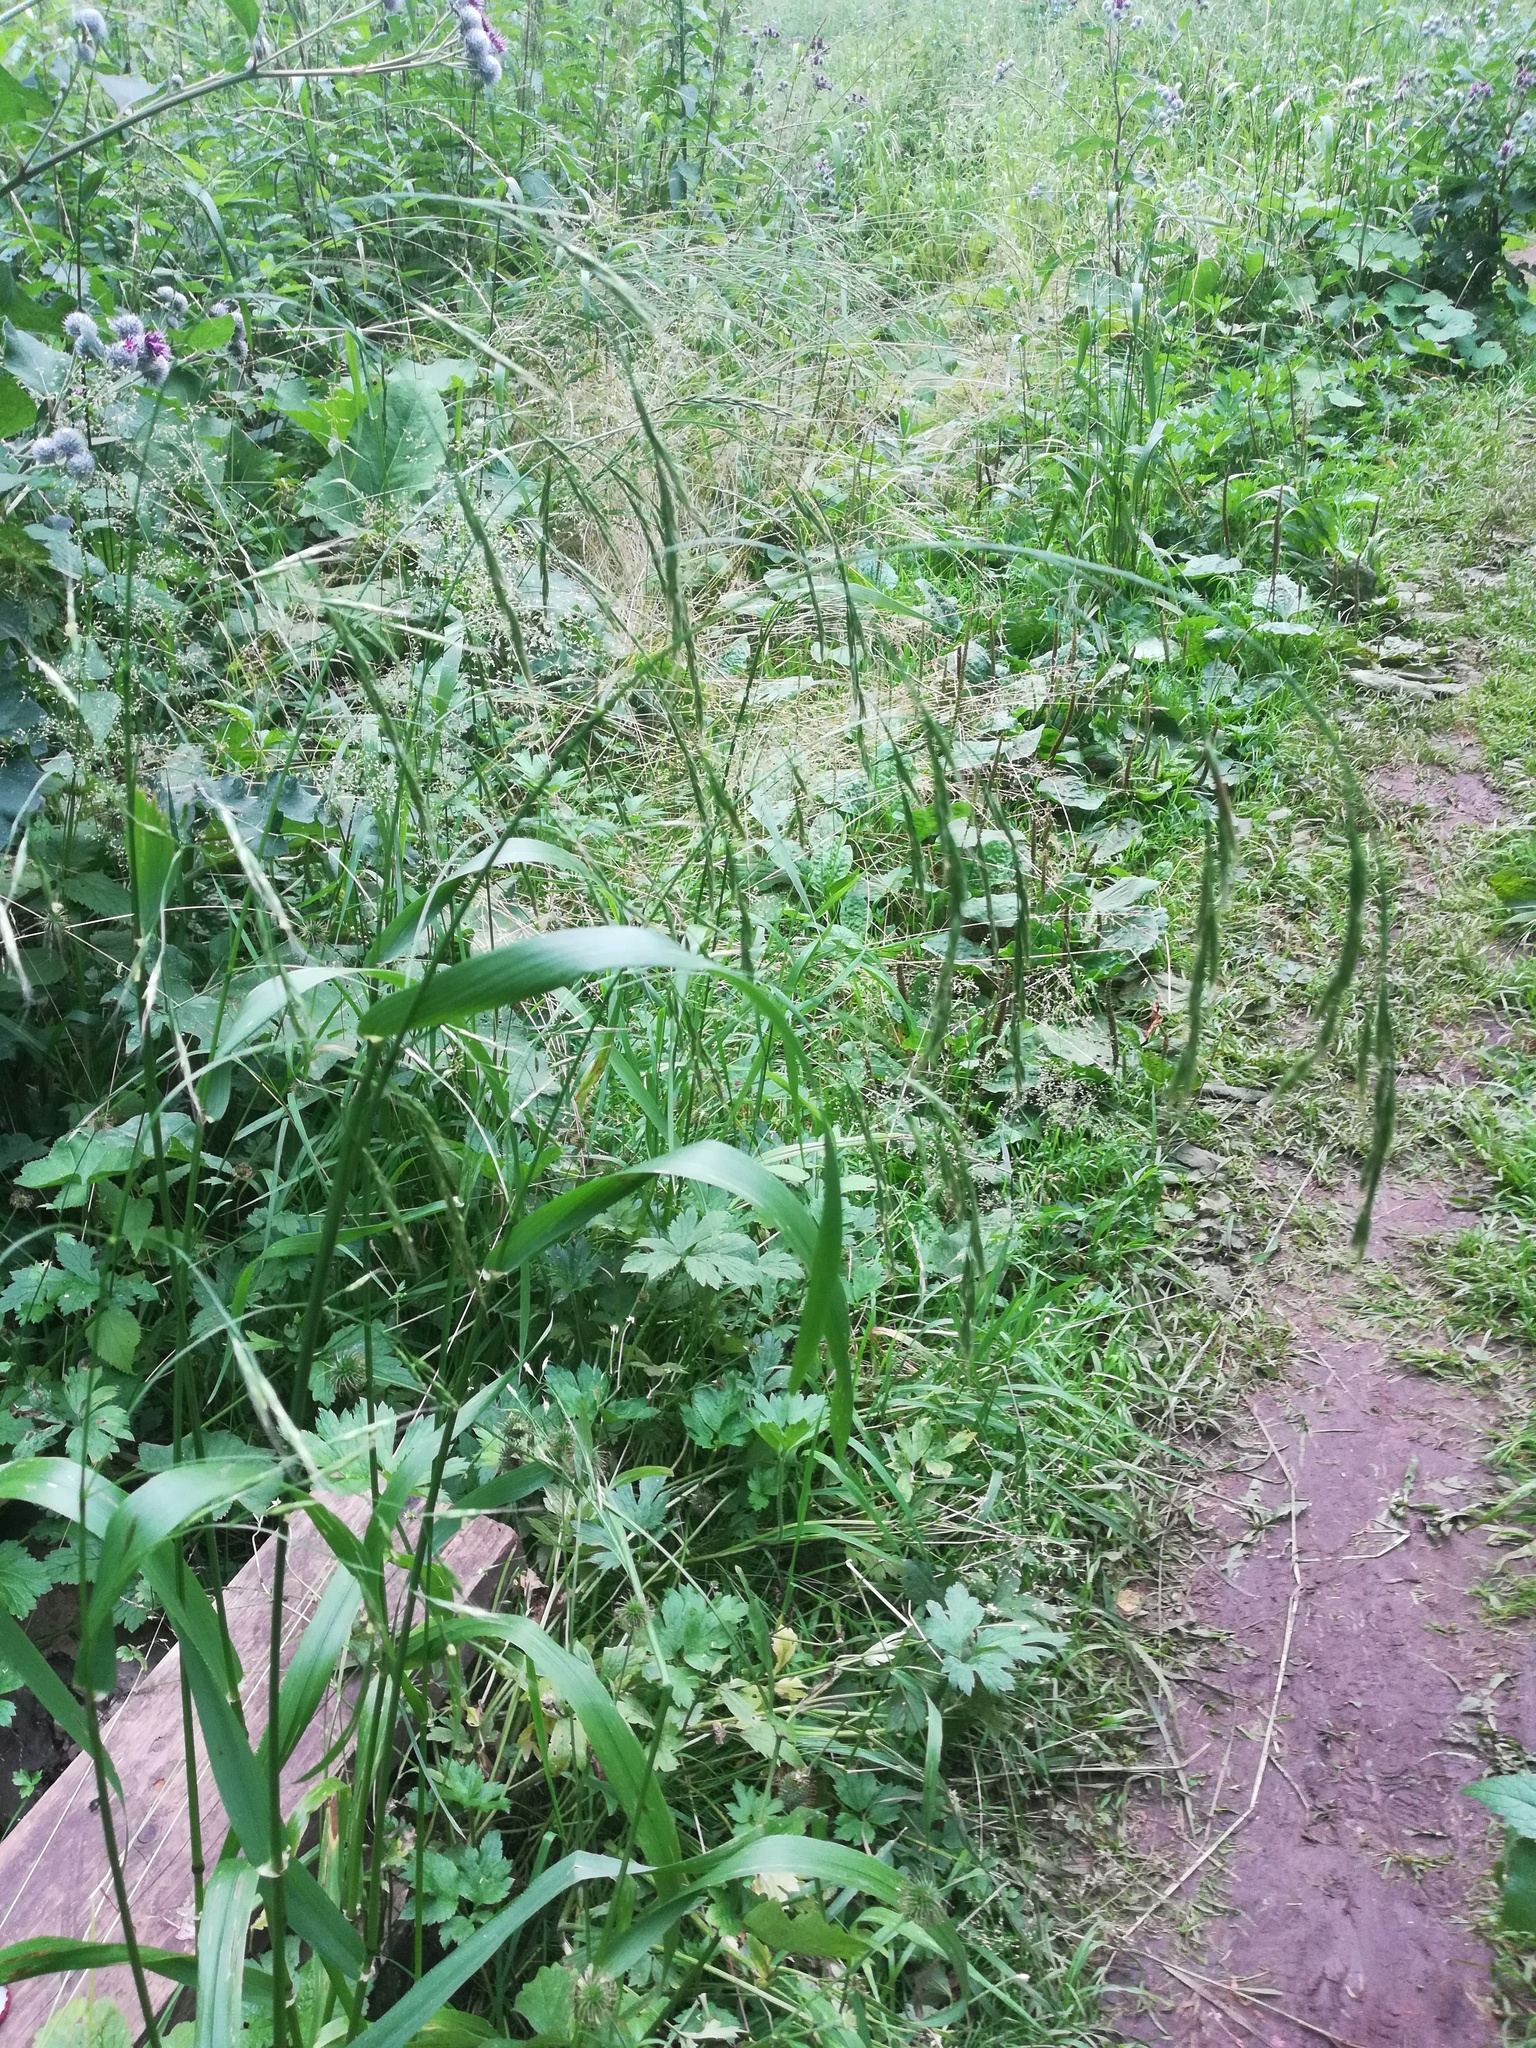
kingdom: Plantae
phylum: Tracheophyta
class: Liliopsida
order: Poales
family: Poaceae
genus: Lolium
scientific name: Lolium giganteum
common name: Giant fescue
